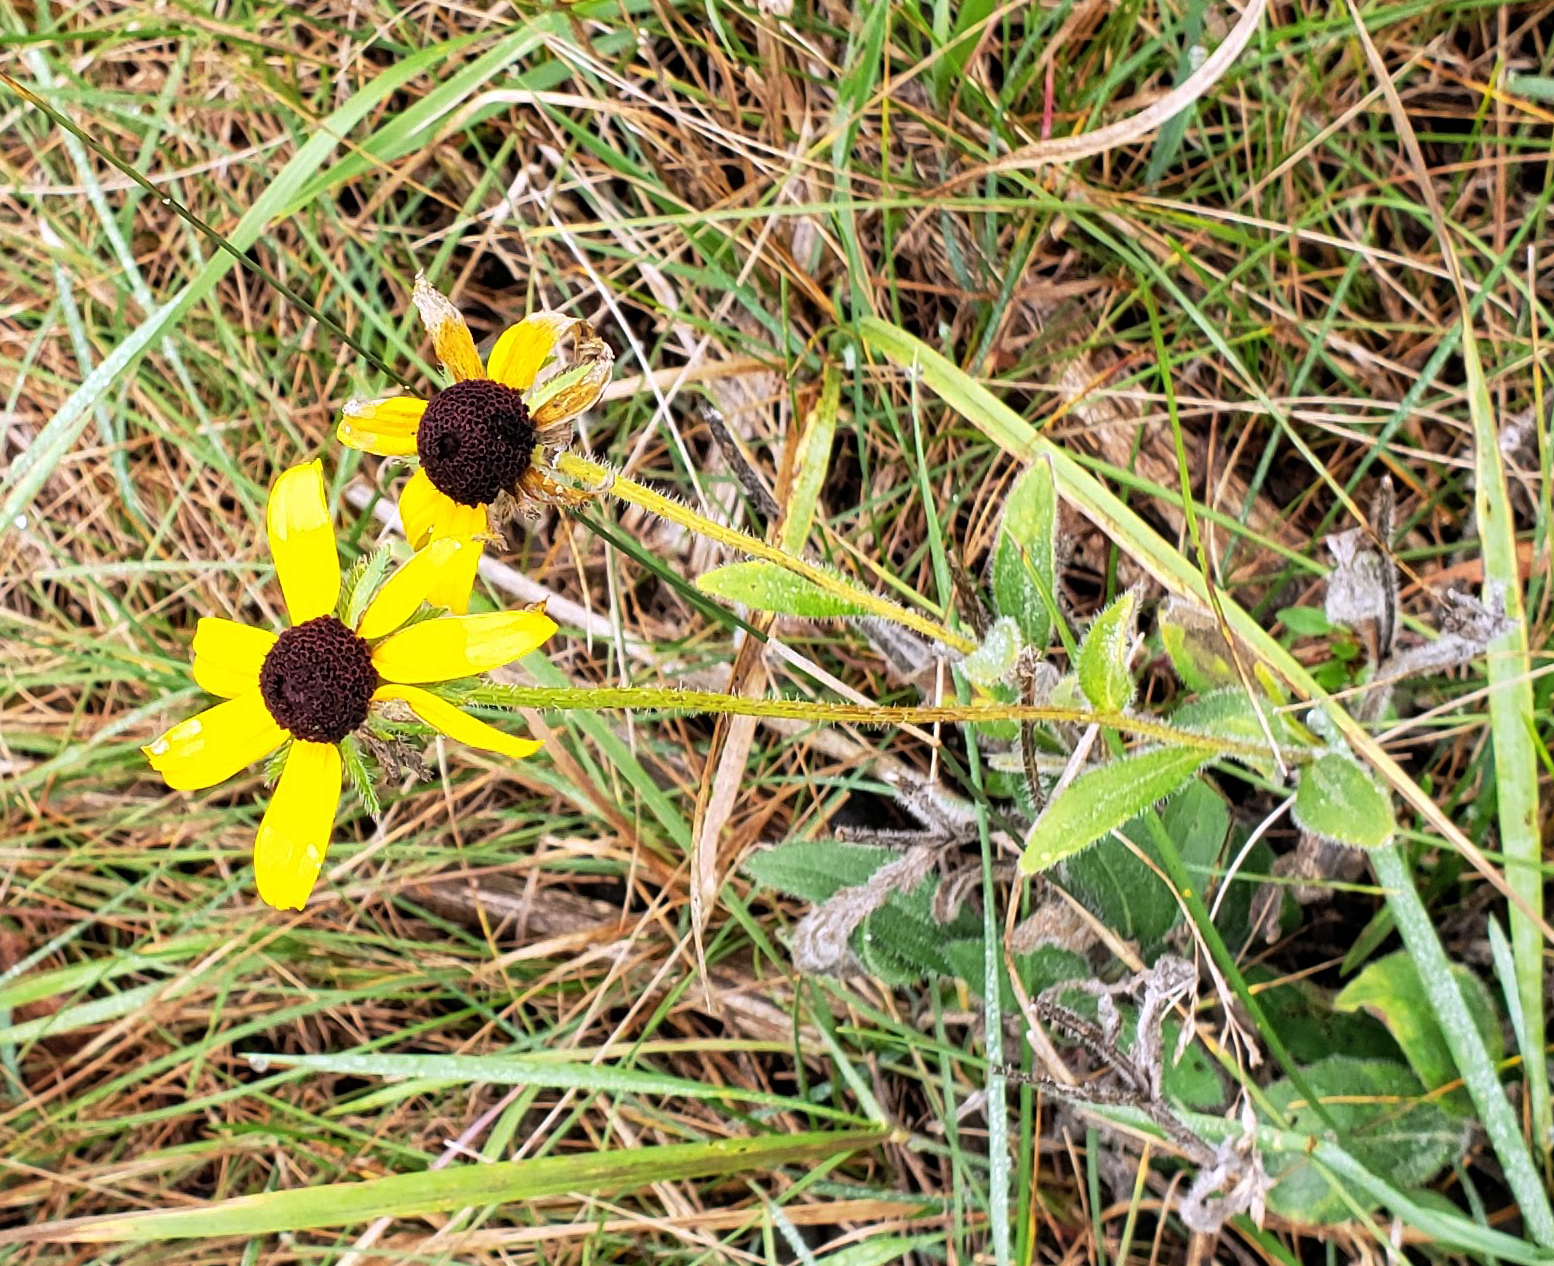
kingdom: Plantae
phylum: Tracheophyta
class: Magnoliopsida
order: Asterales
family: Asteraceae
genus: Rudbeckia
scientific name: Rudbeckia hirta
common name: Black-eyed-susan
